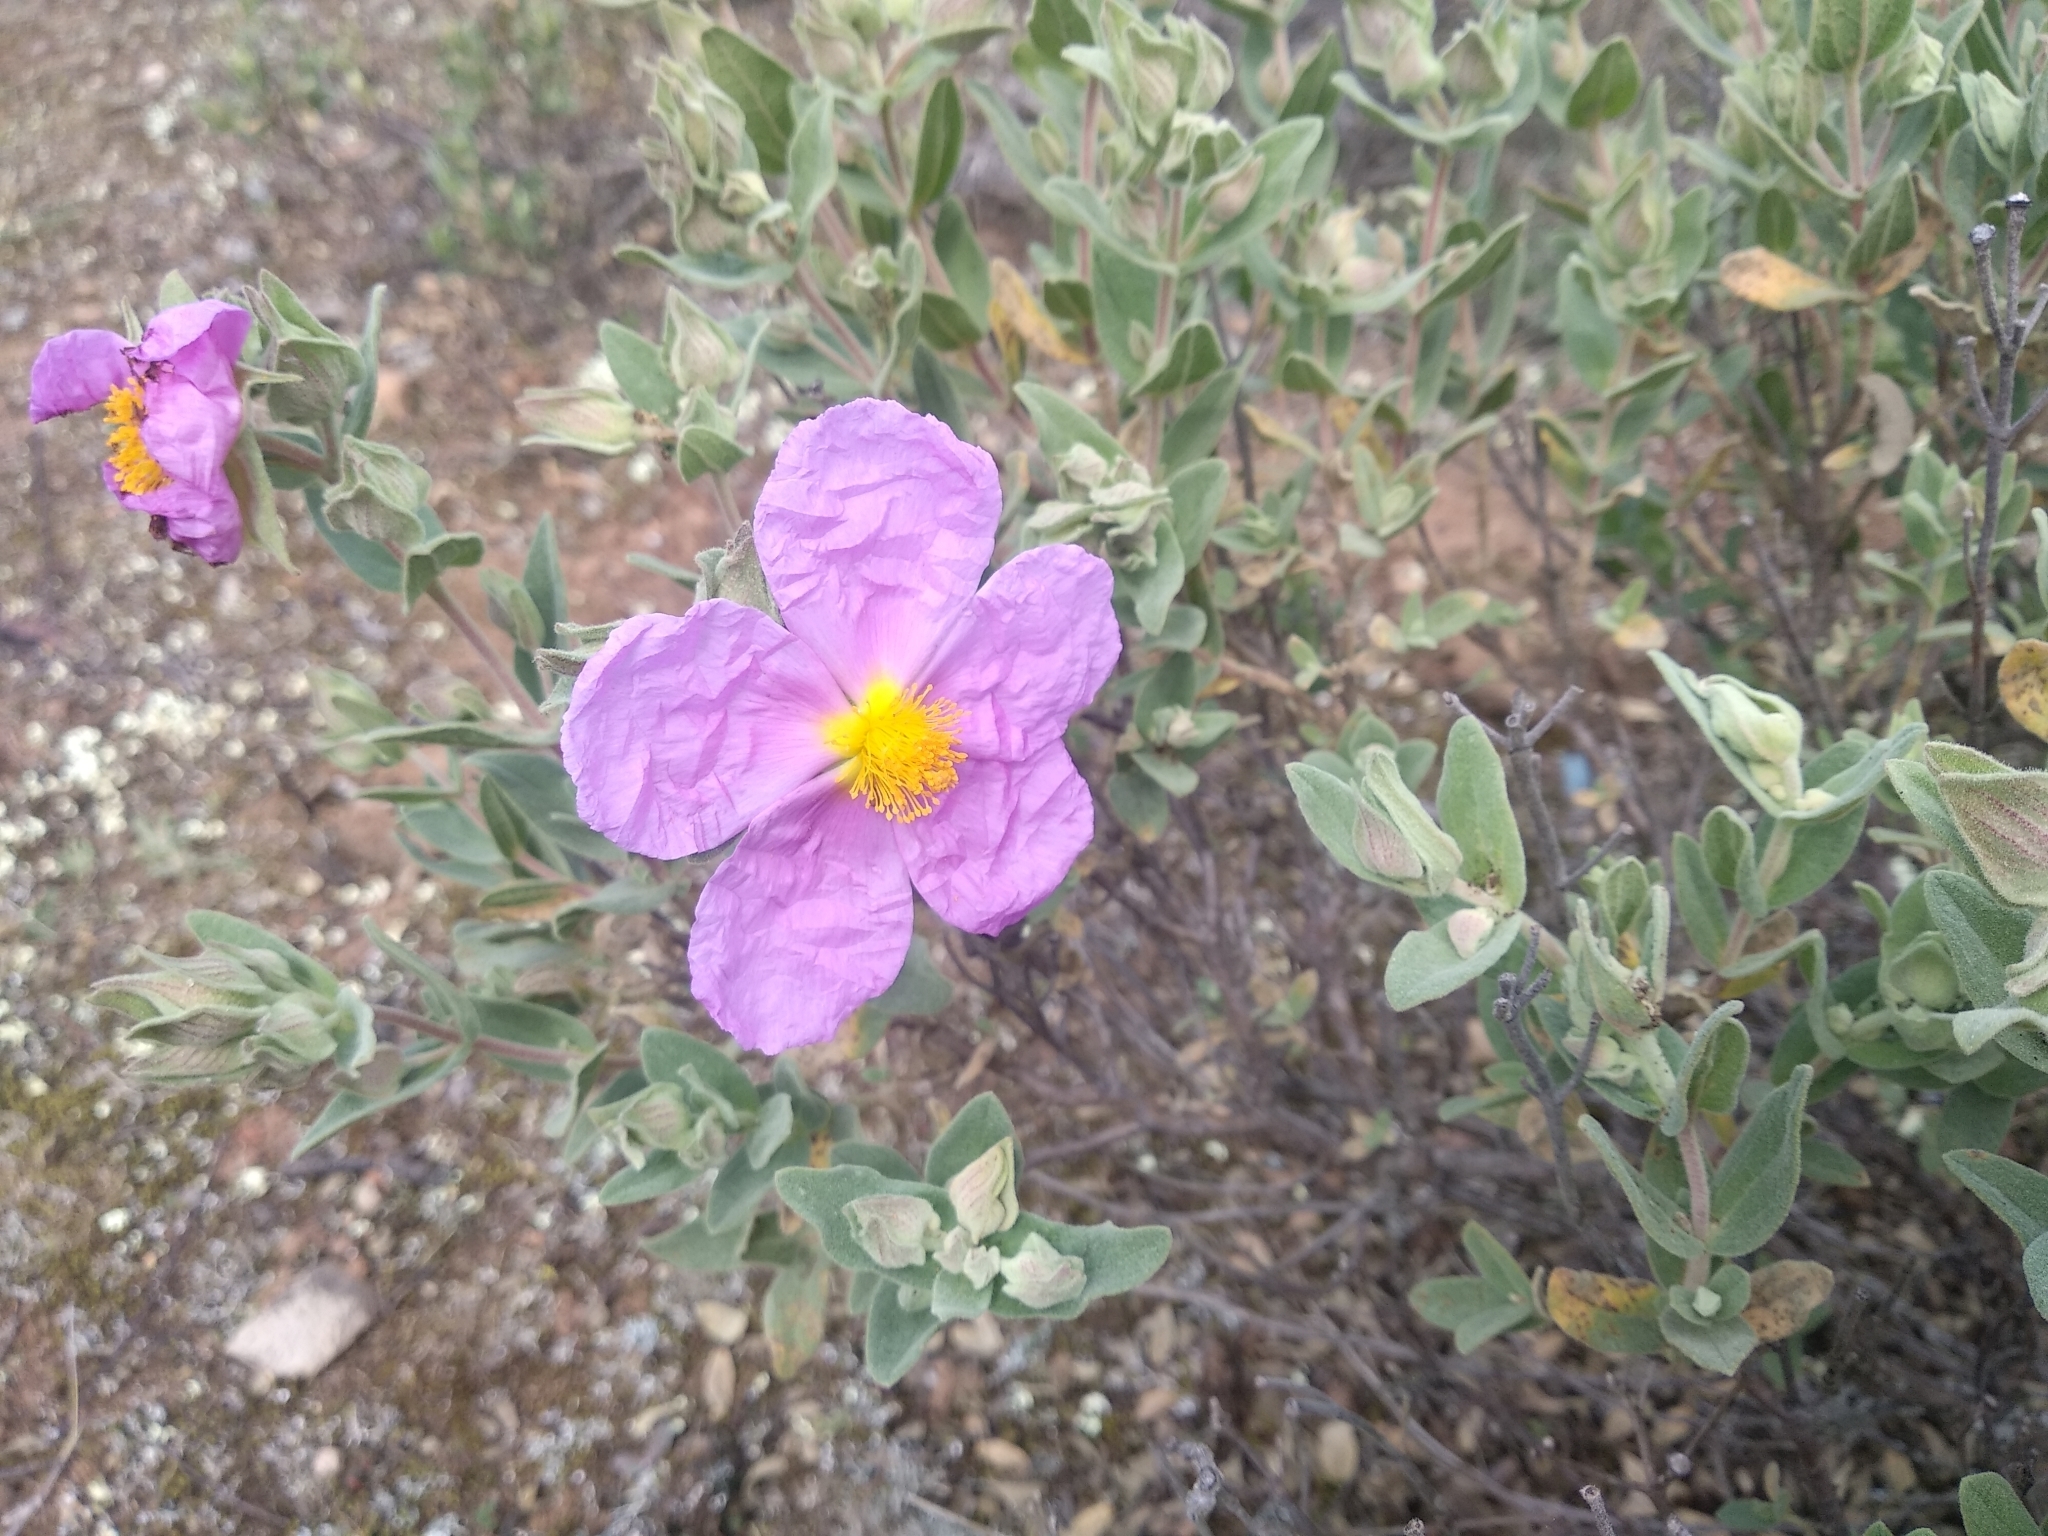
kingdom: Plantae
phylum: Tracheophyta
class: Magnoliopsida
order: Malvales
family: Cistaceae
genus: Cistus
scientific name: Cistus albidus
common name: White-leaf rock-rose
